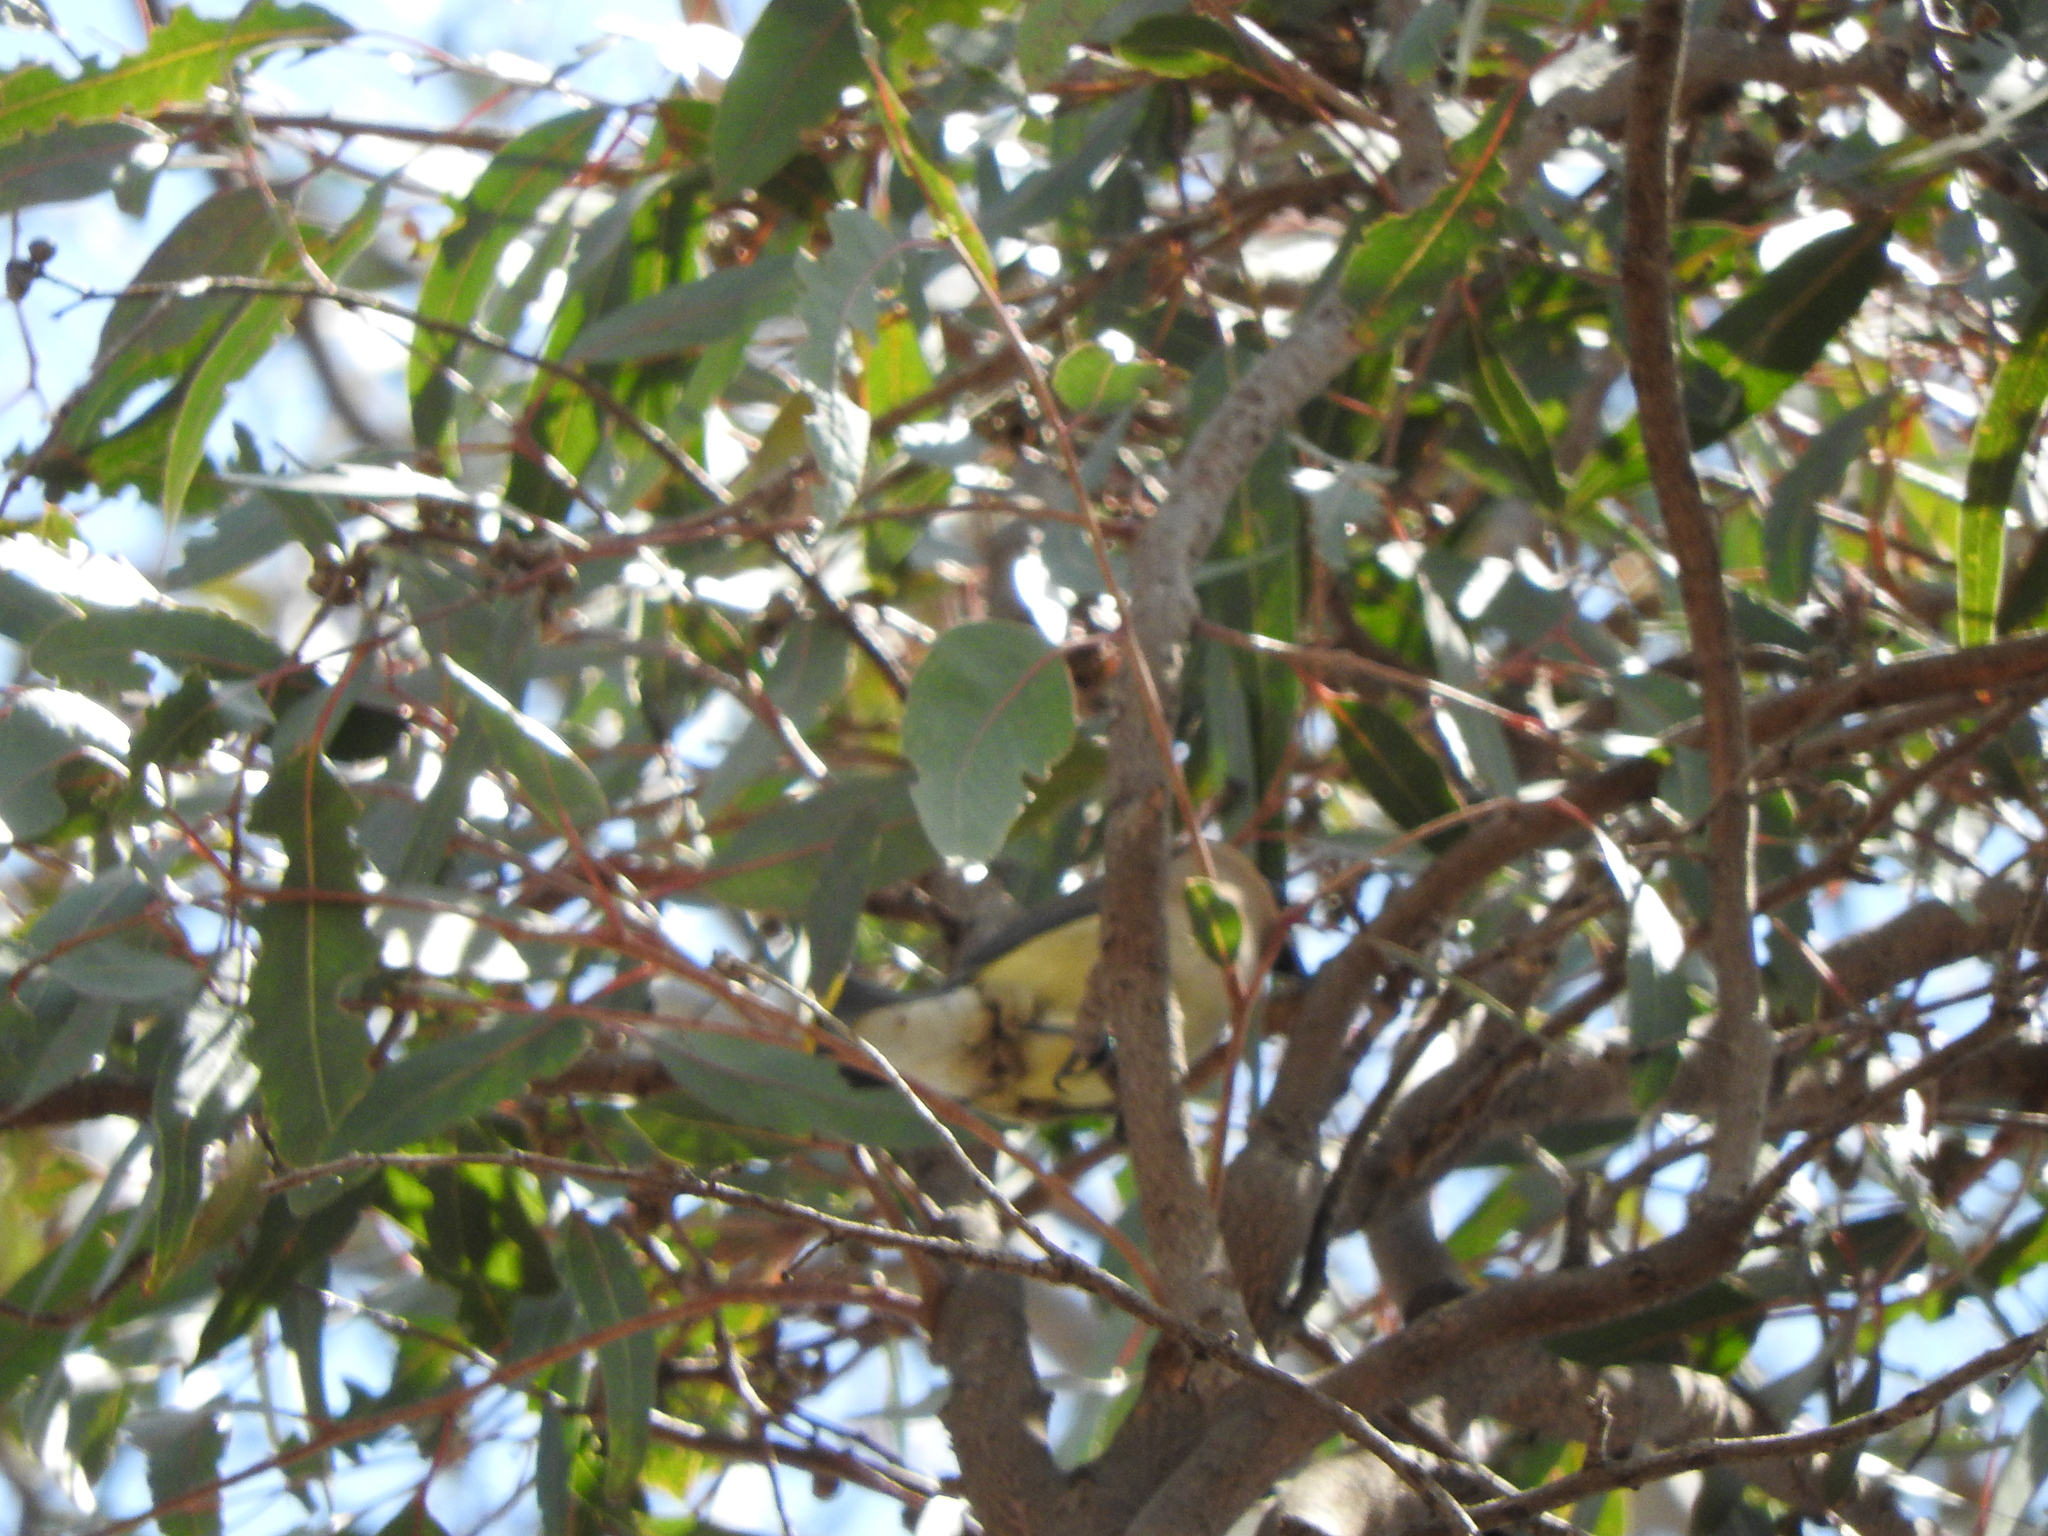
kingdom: Animalia
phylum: Chordata
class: Aves
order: Passeriformes
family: Bombycillidae
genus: Bombycilla
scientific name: Bombycilla cedrorum
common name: Cedar waxwing
